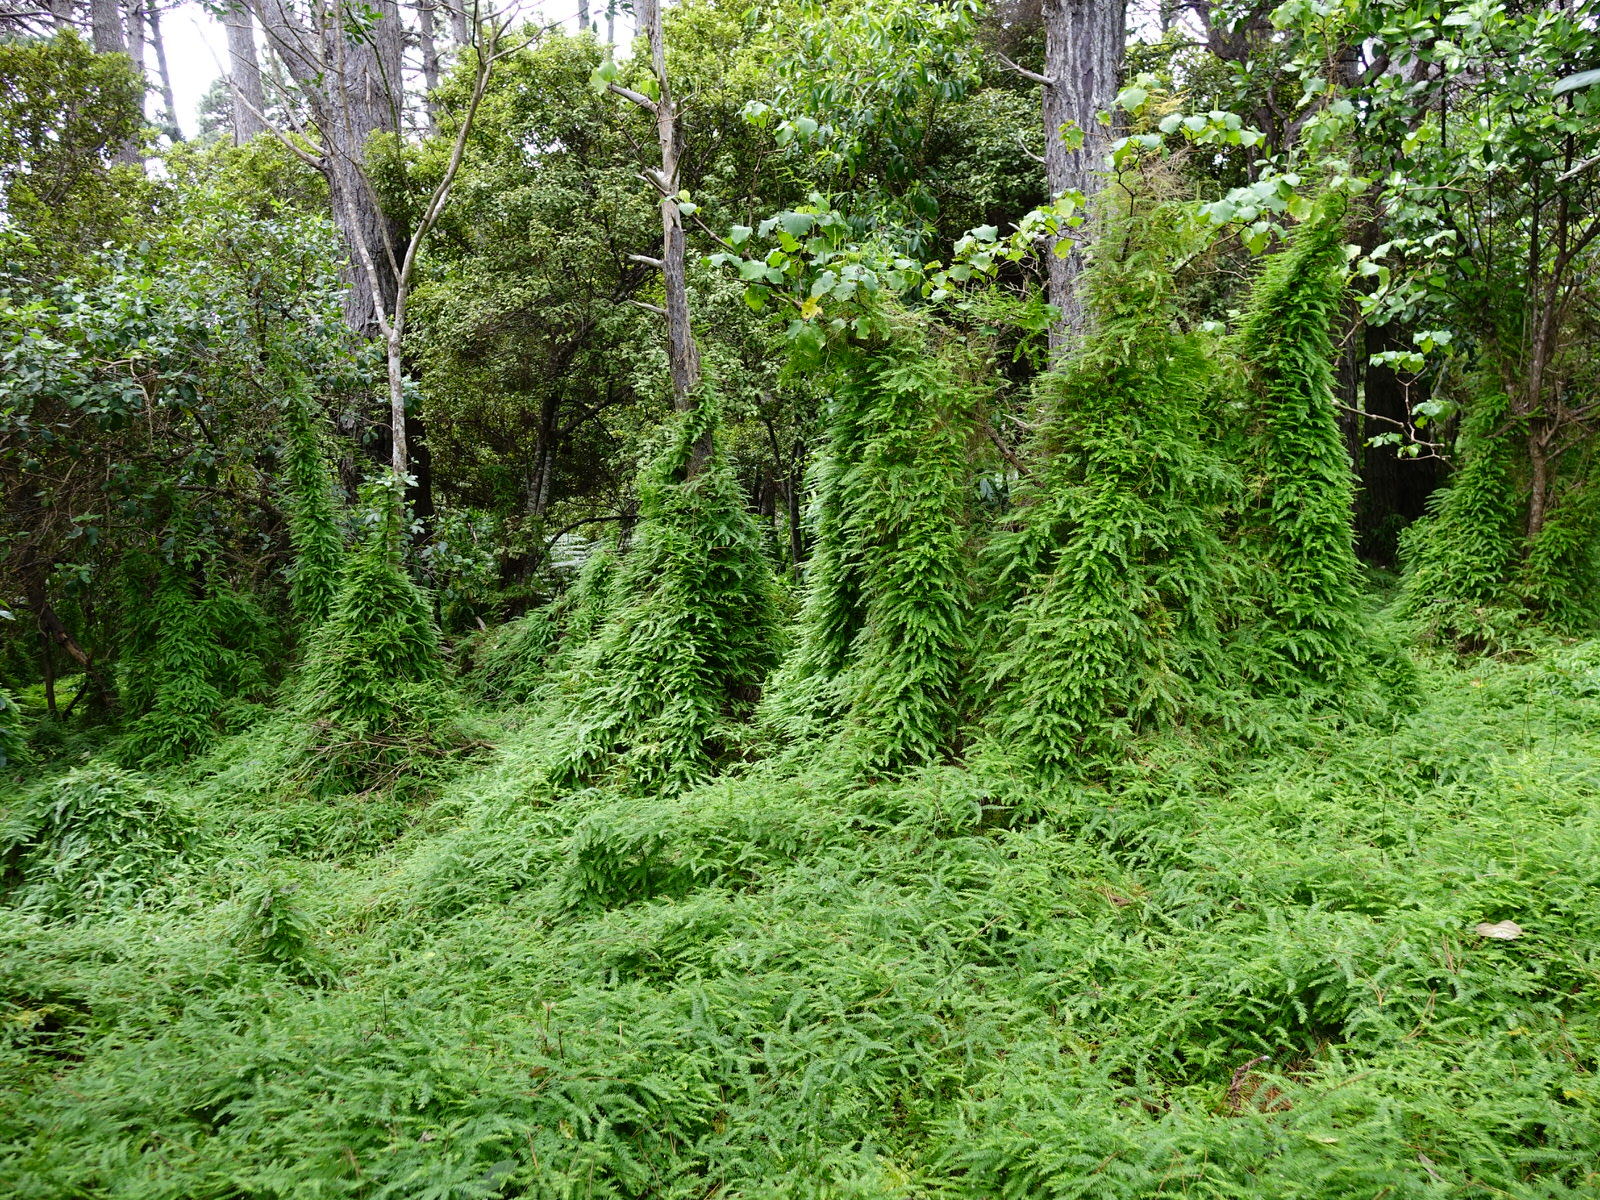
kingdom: Plantae
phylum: Tracheophyta
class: Liliopsida
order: Asparagales
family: Asparagaceae
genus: Asparagus
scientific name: Asparagus scandens
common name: Asparagus-fern
